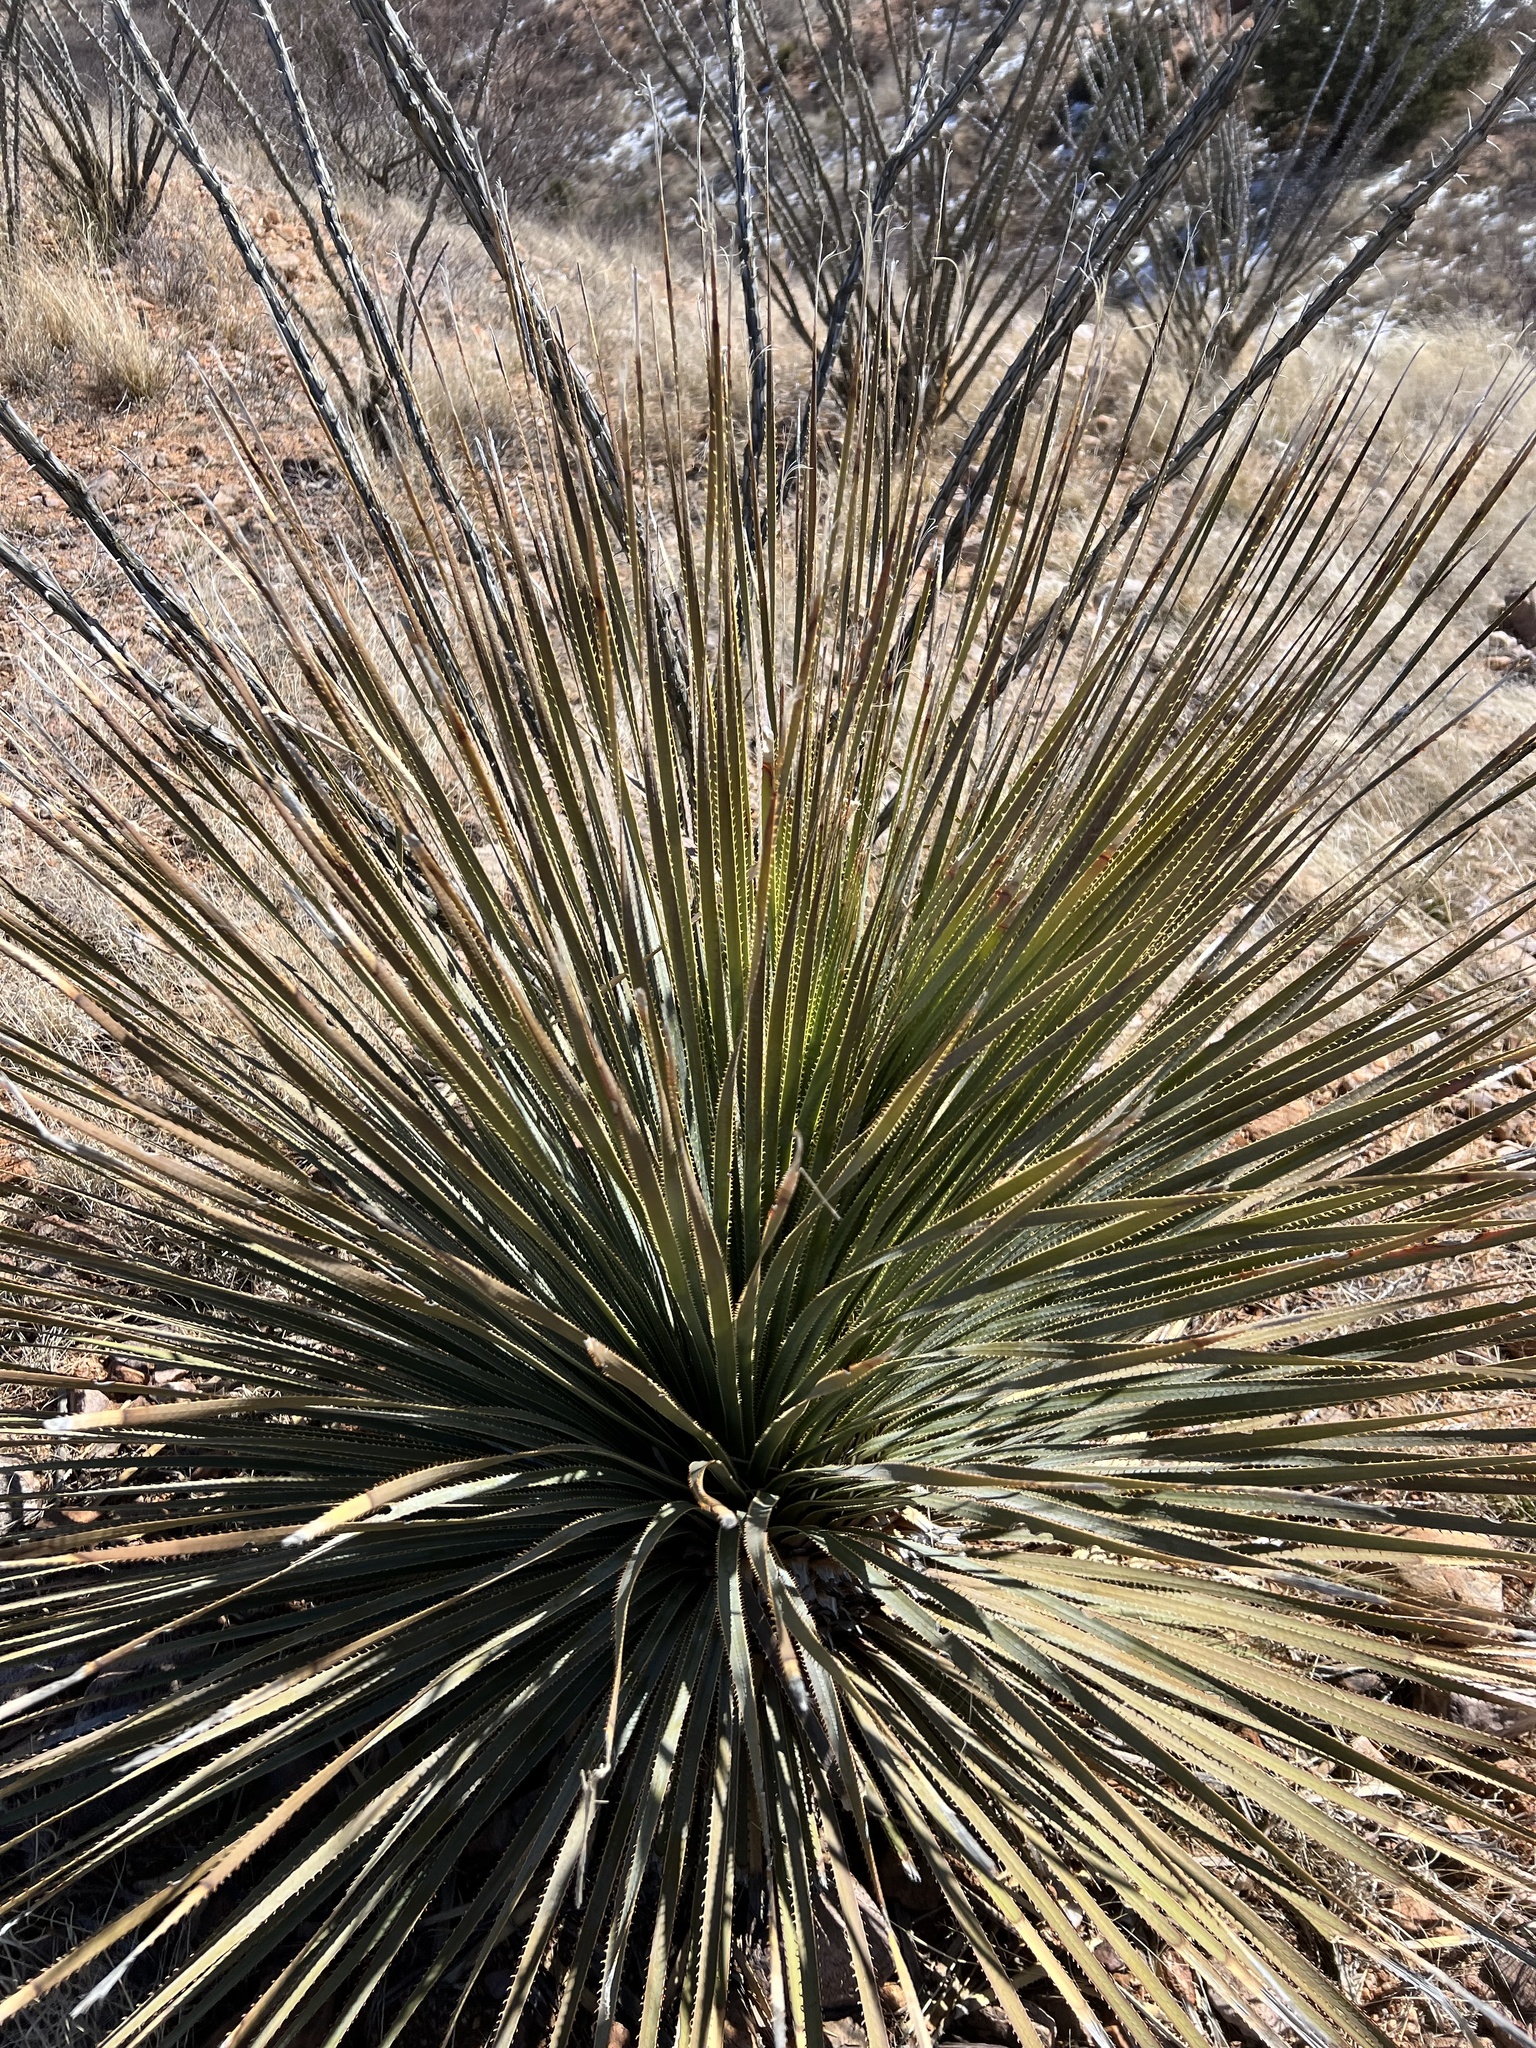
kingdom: Plantae
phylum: Tracheophyta
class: Liliopsida
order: Asparagales
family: Asparagaceae
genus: Dasylirion
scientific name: Dasylirion wheeleri
